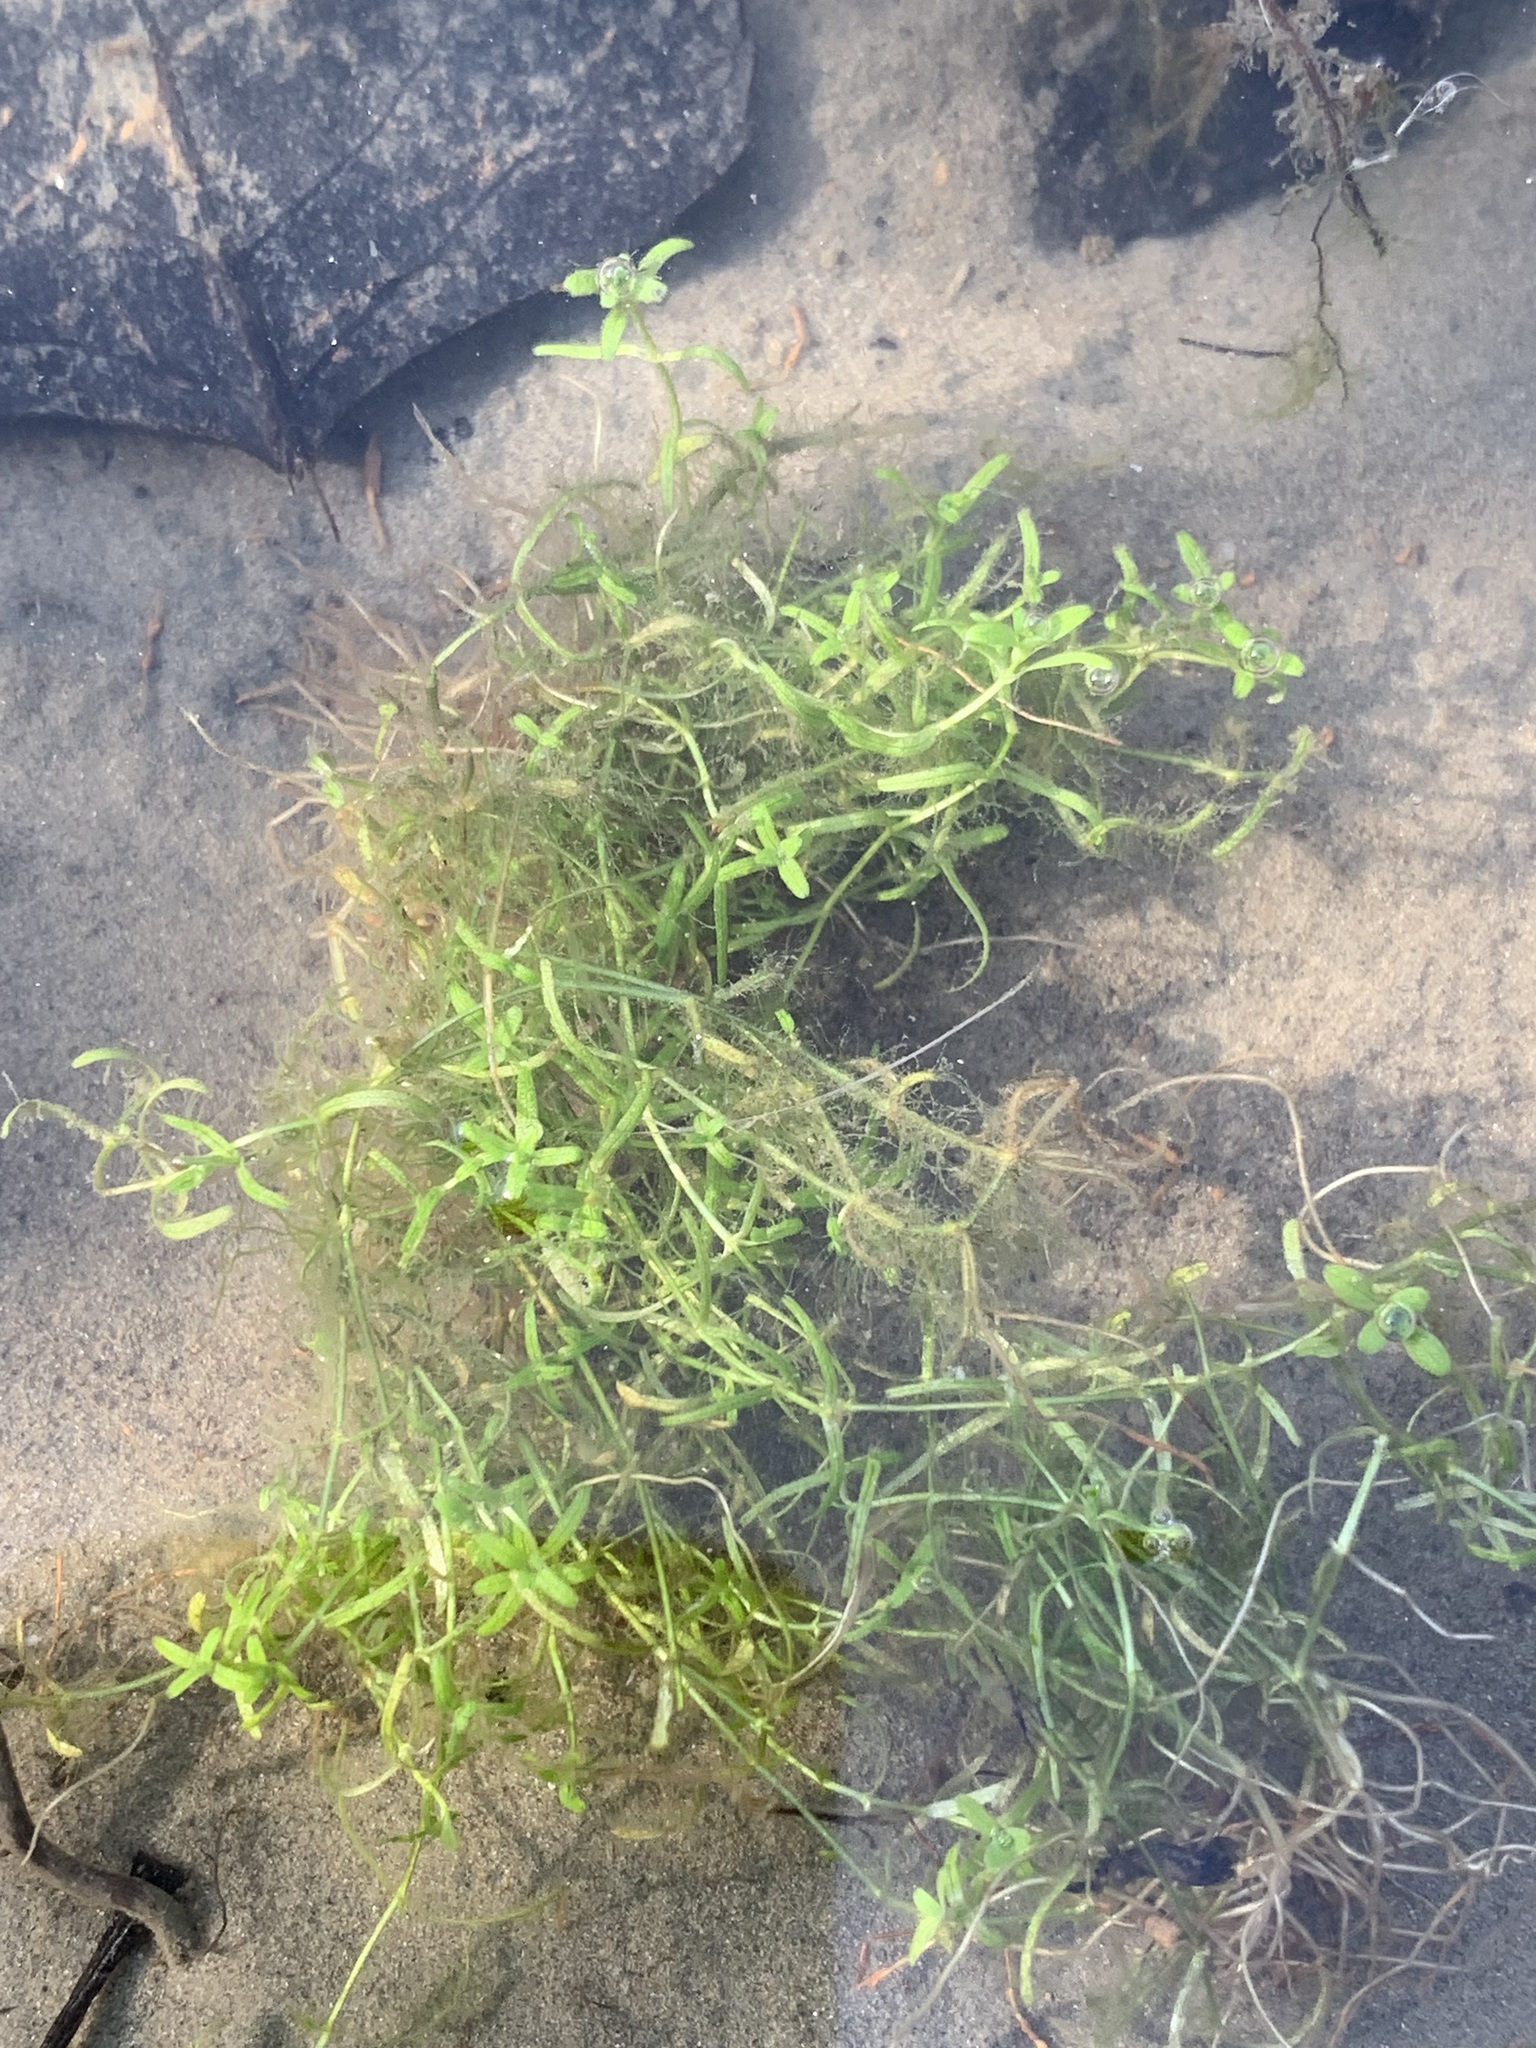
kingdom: Plantae
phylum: Tracheophyta
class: Magnoliopsida
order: Lamiales
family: Plantaginaceae
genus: Callitriche
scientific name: Callitriche palustris
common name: Spring water-starwort
